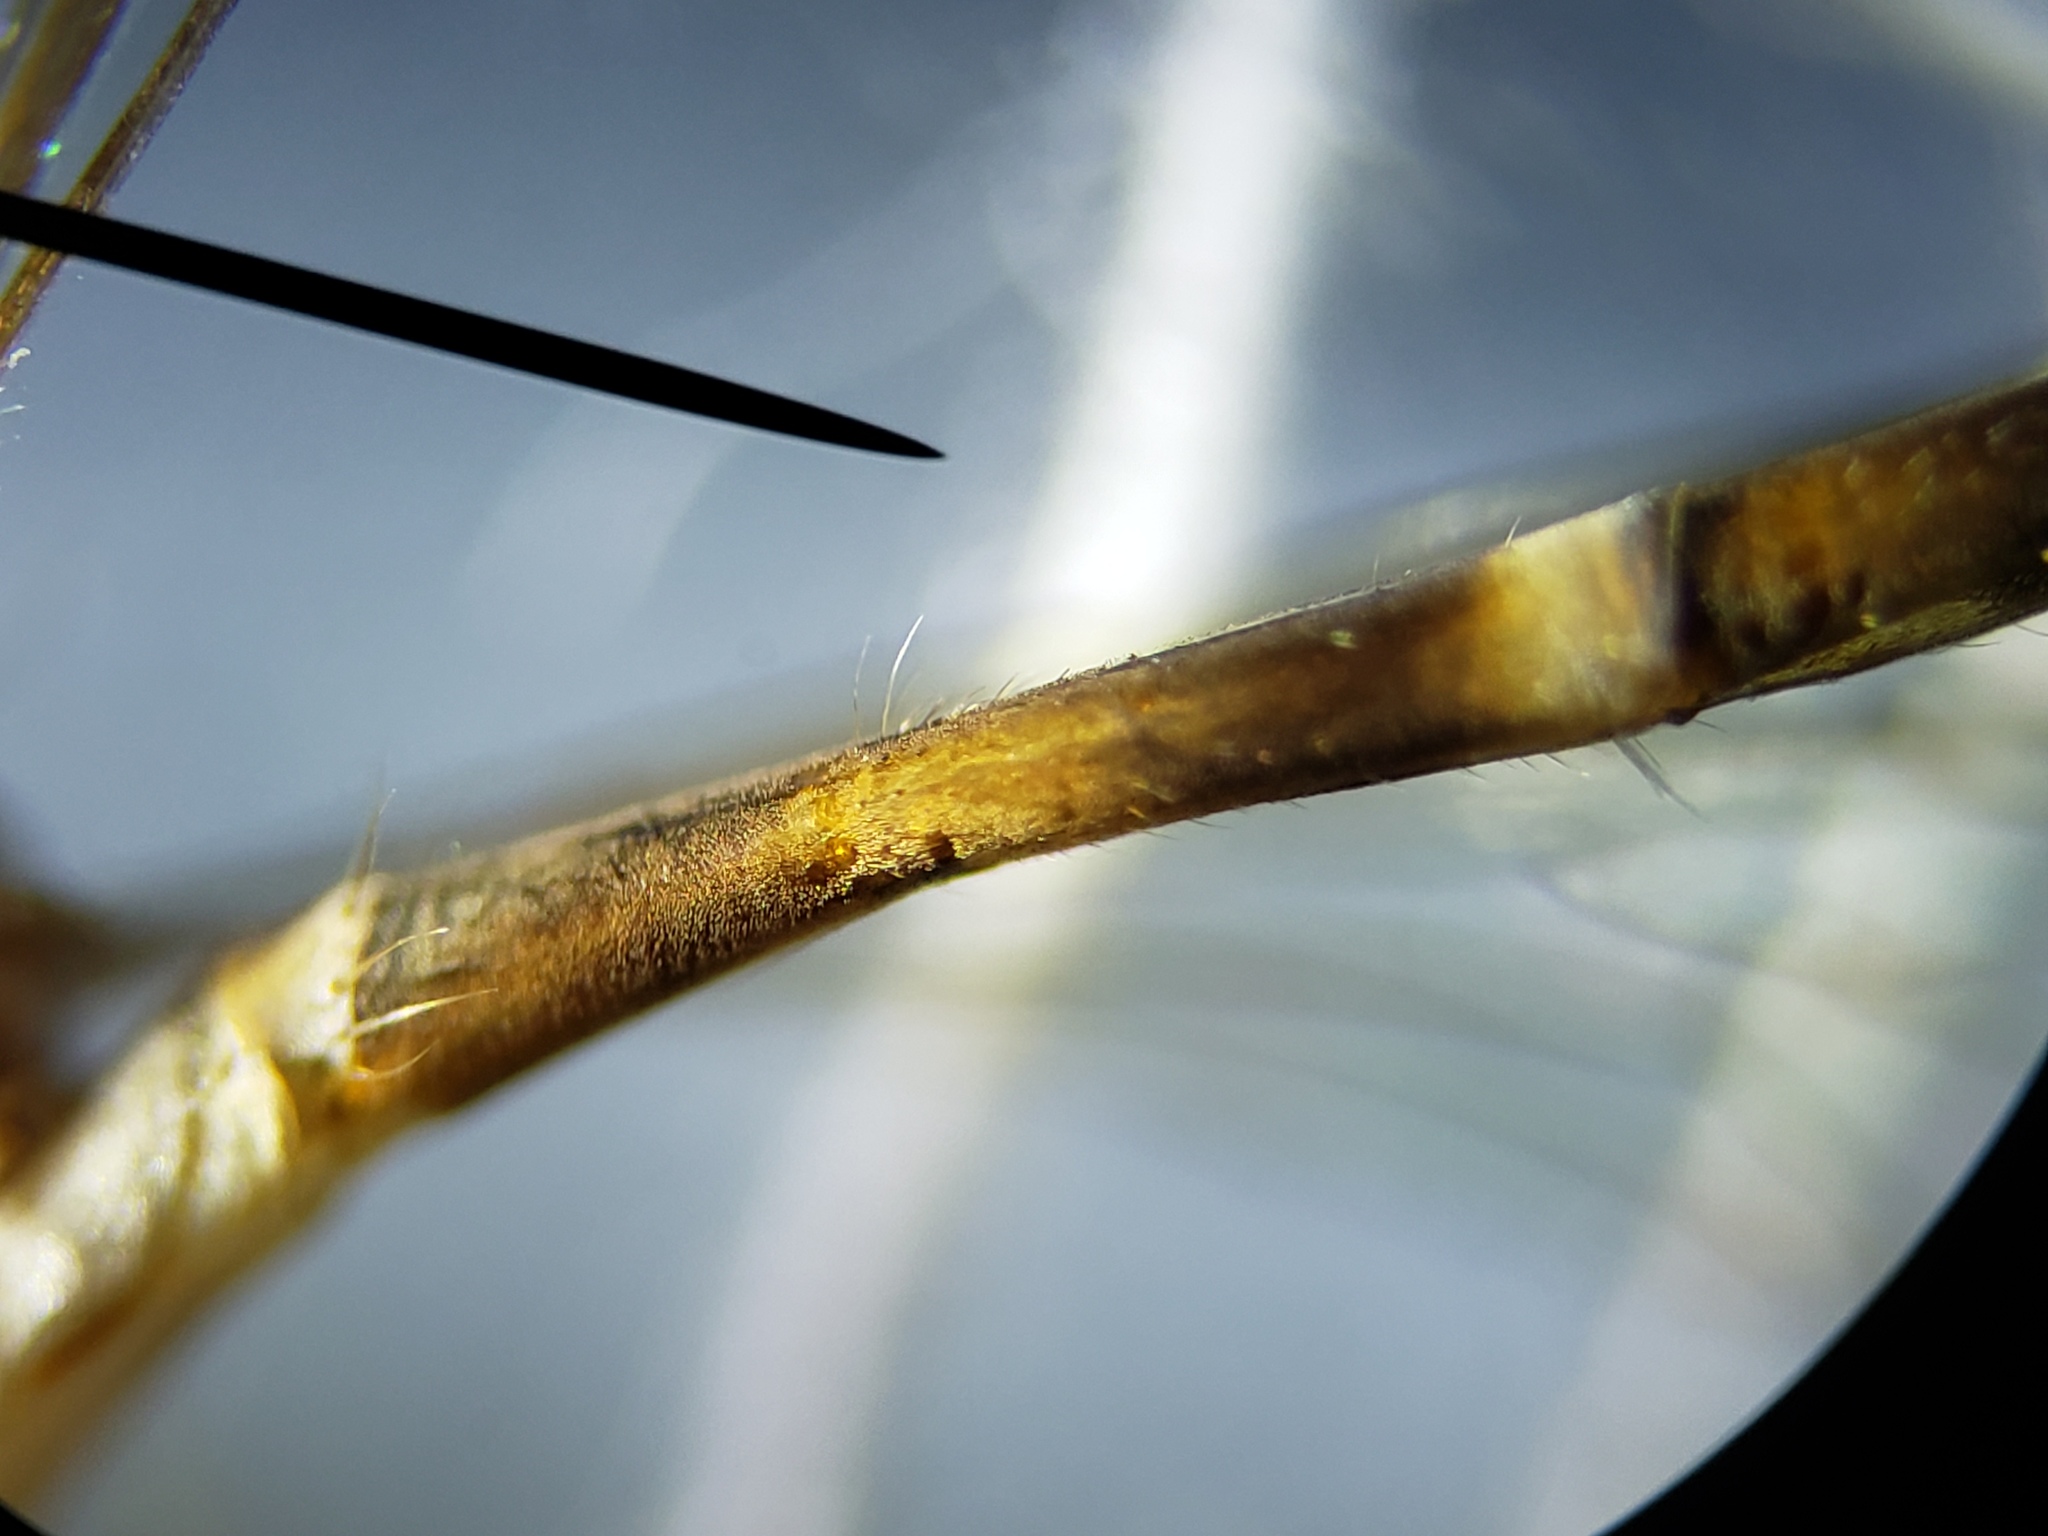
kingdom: Animalia
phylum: Arthropoda
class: Insecta
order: Diptera
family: Asilidae
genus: Psilonyx
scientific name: Psilonyx annulatus
